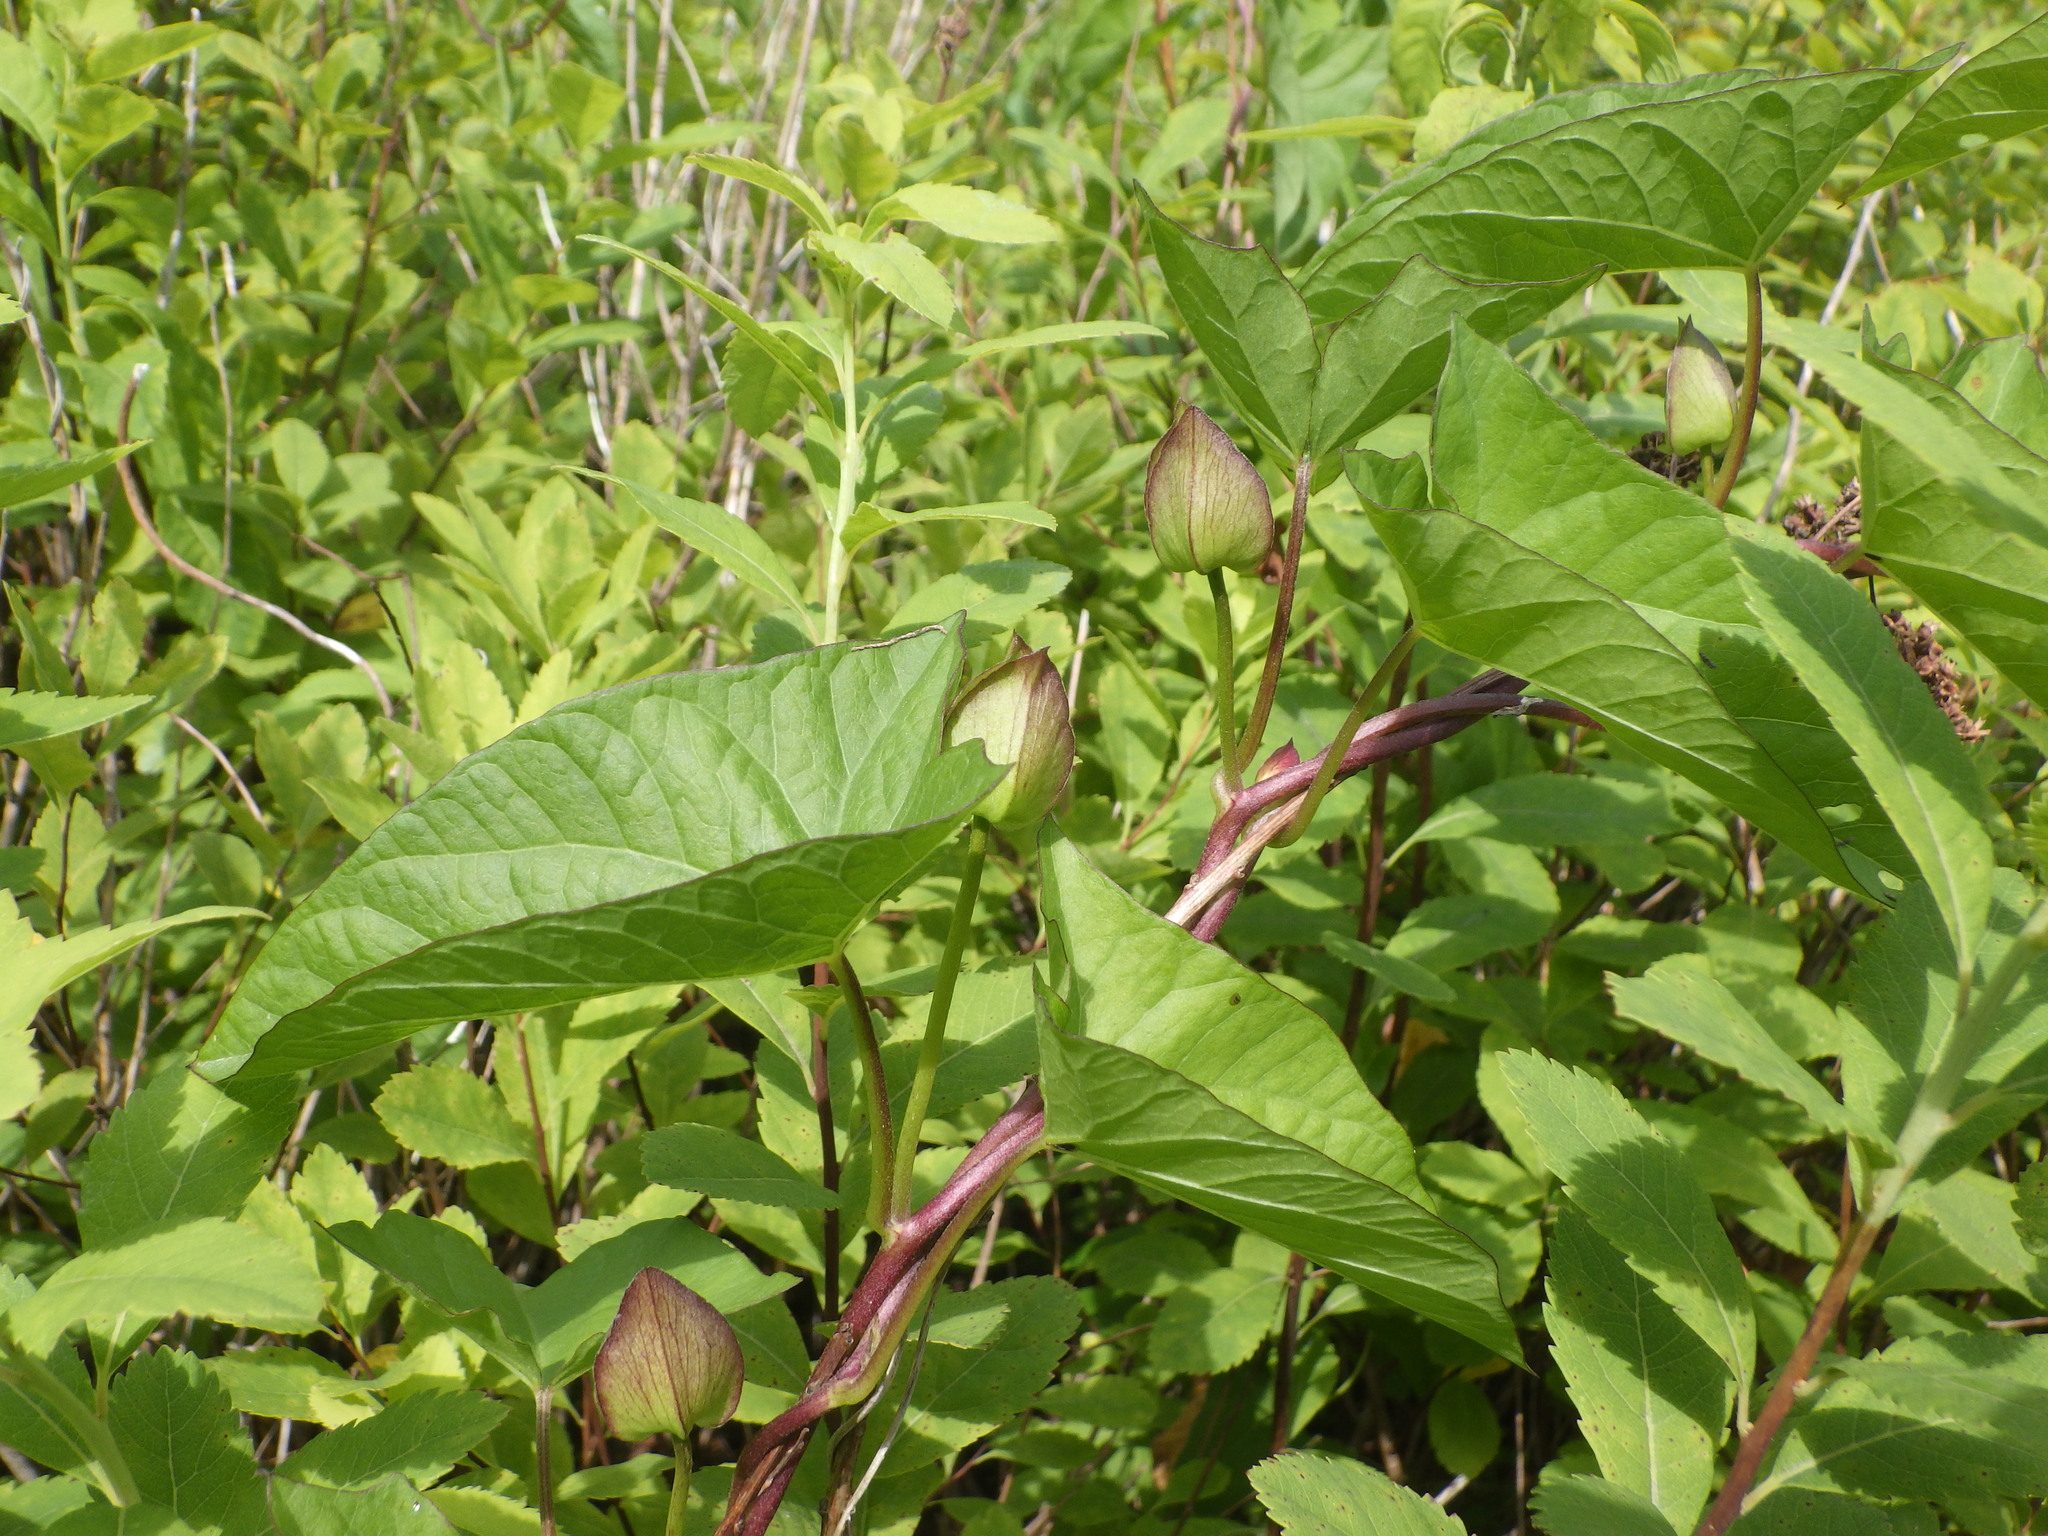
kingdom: Plantae
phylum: Tracheophyta
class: Magnoliopsida
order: Solanales
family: Convolvulaceae
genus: Calystegia
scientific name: Calystegia sepium
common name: Hedge bindweed
